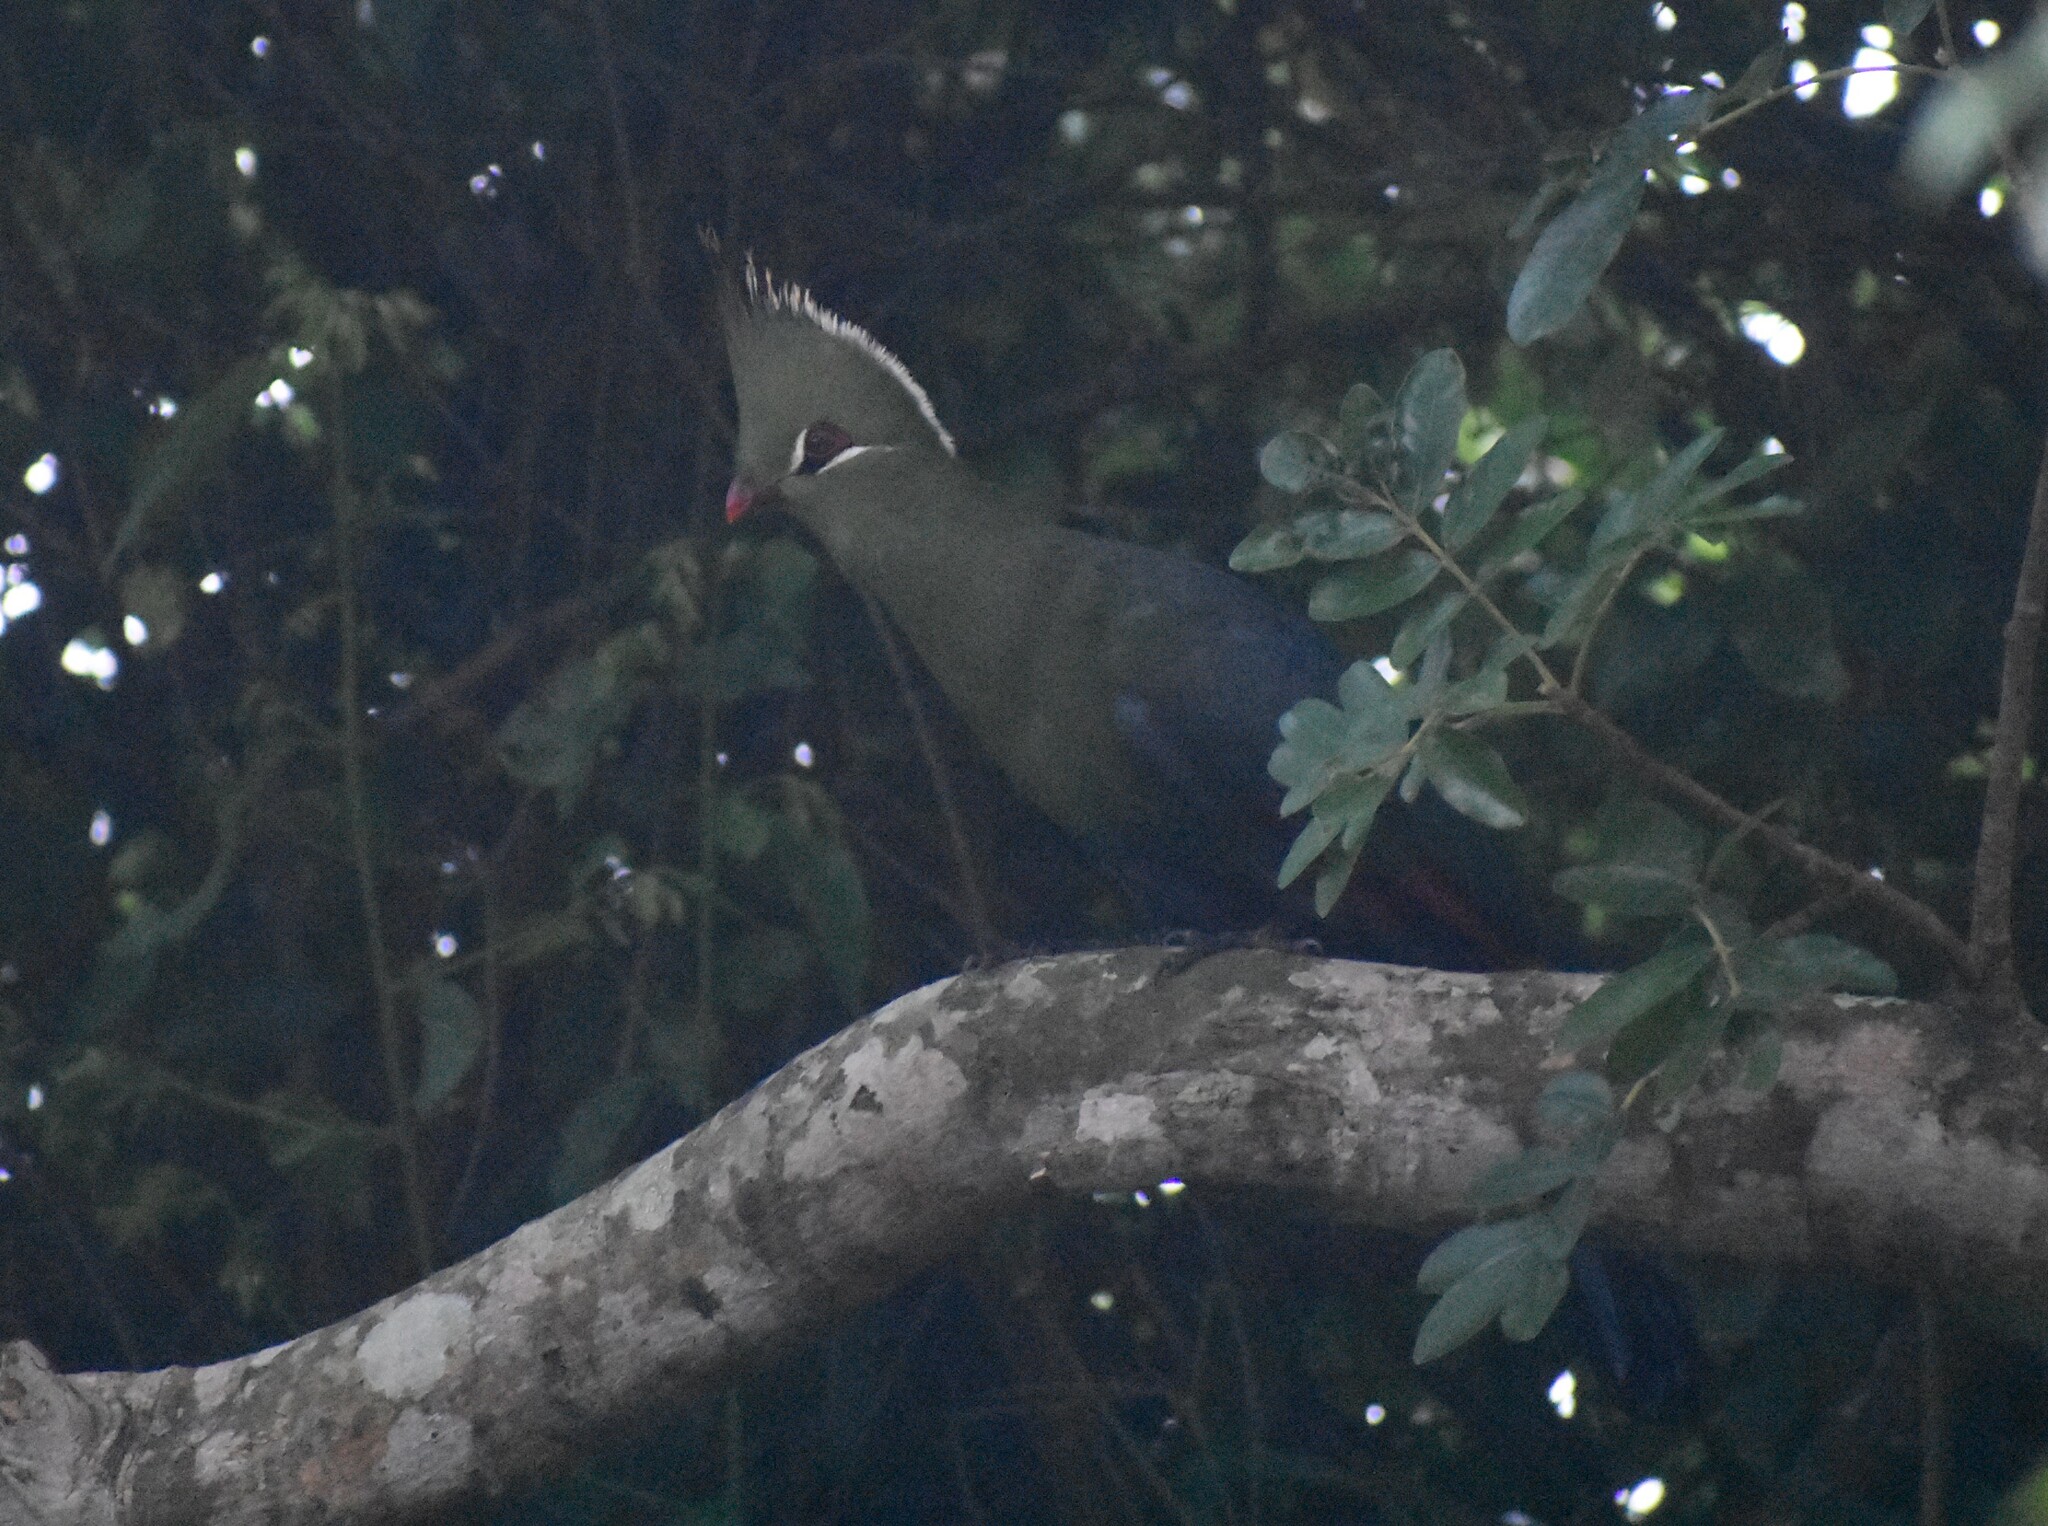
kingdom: Animalia
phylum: Chordata
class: Aves
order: Musophagiformes
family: Musophagidae
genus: Tauraco
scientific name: Tauraco livingstonii
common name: Livingstone's turaco
